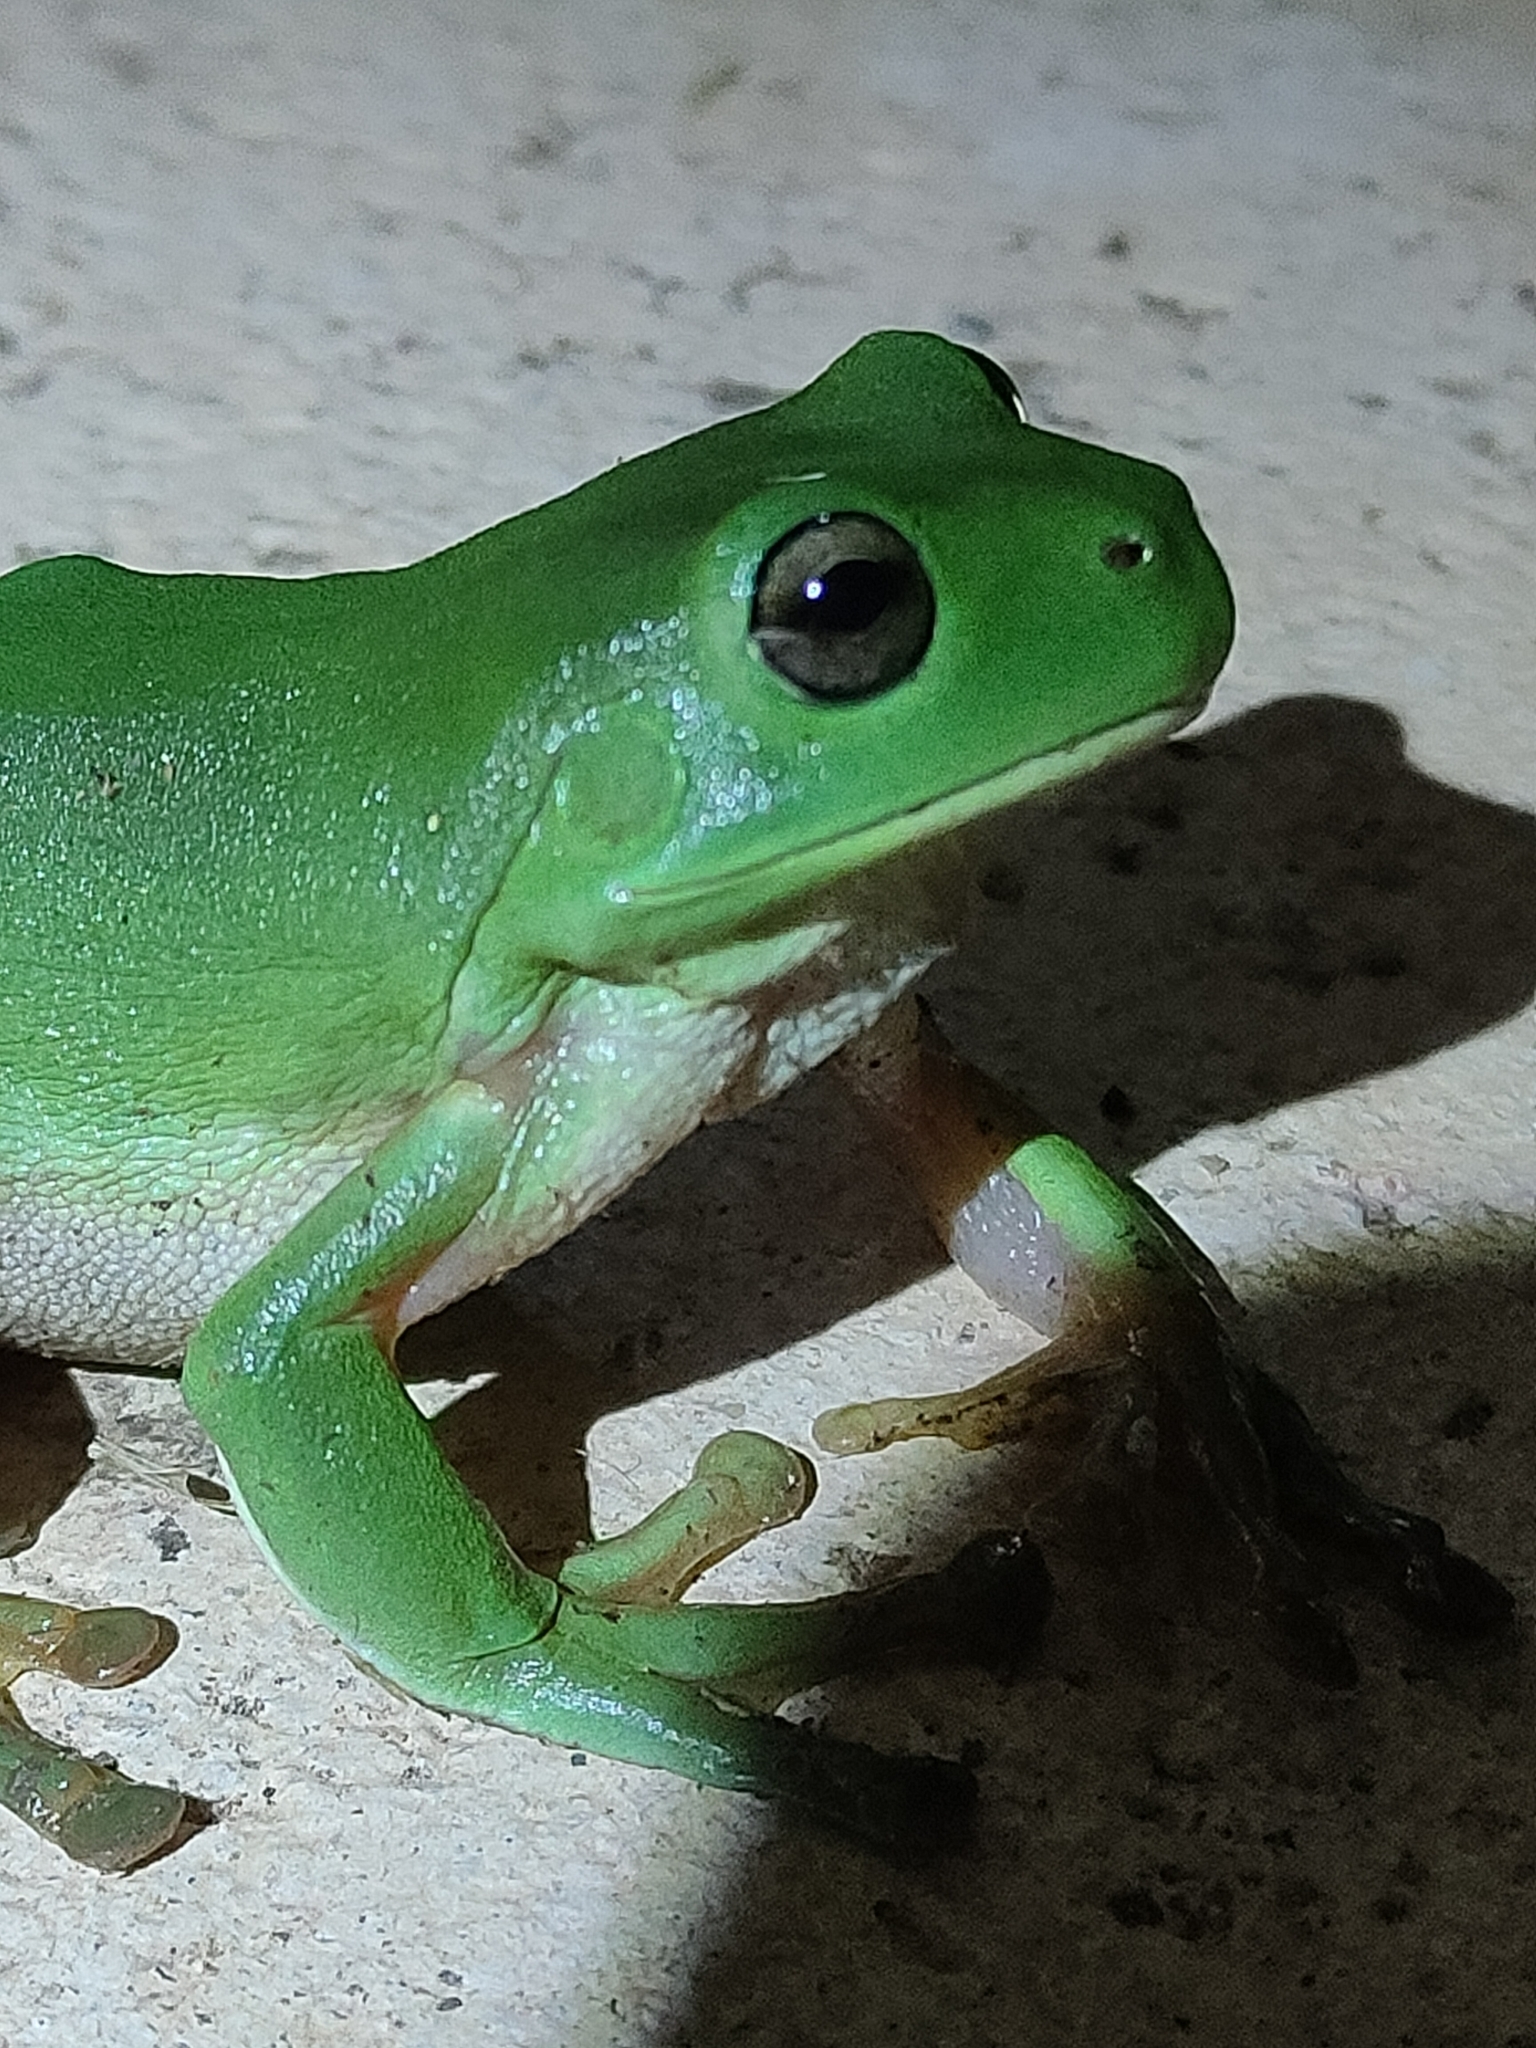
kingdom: Animalia
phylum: Chordata
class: Amphibia
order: Anura
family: Pelodryadidae
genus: Ranoidea
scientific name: Ranoidea caerulea
